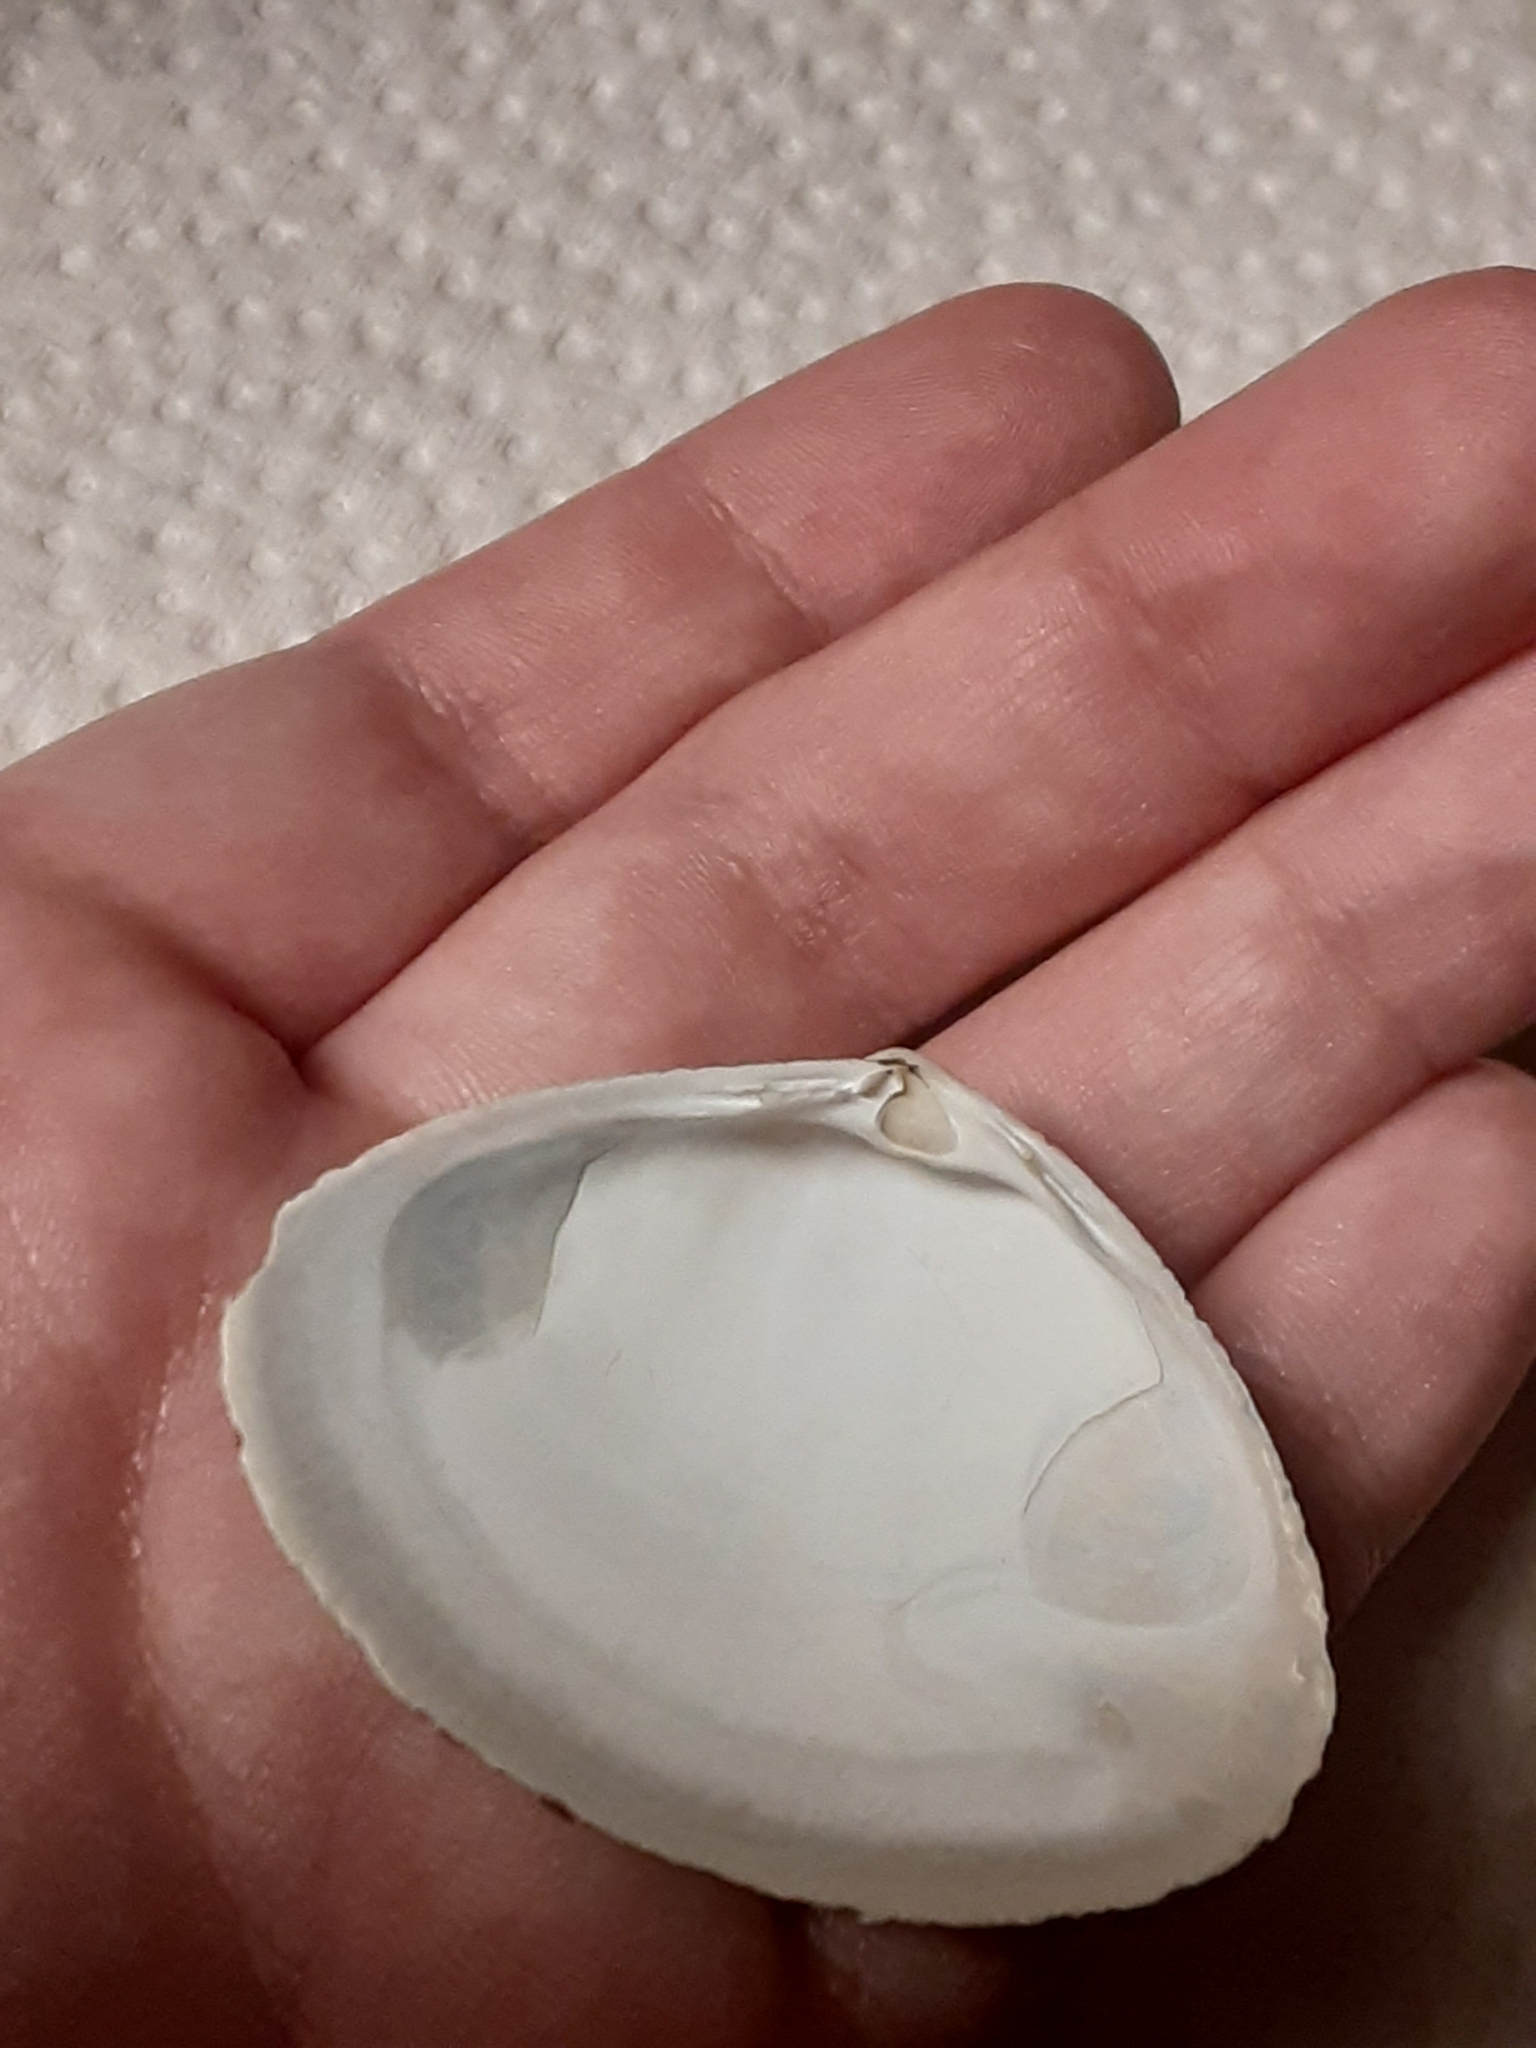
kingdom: Animalia
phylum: Mollusca
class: Bivalvia
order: Venerida
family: Mactridae
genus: Spisula
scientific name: Spisula solidissima
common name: Atlantic surf clam
